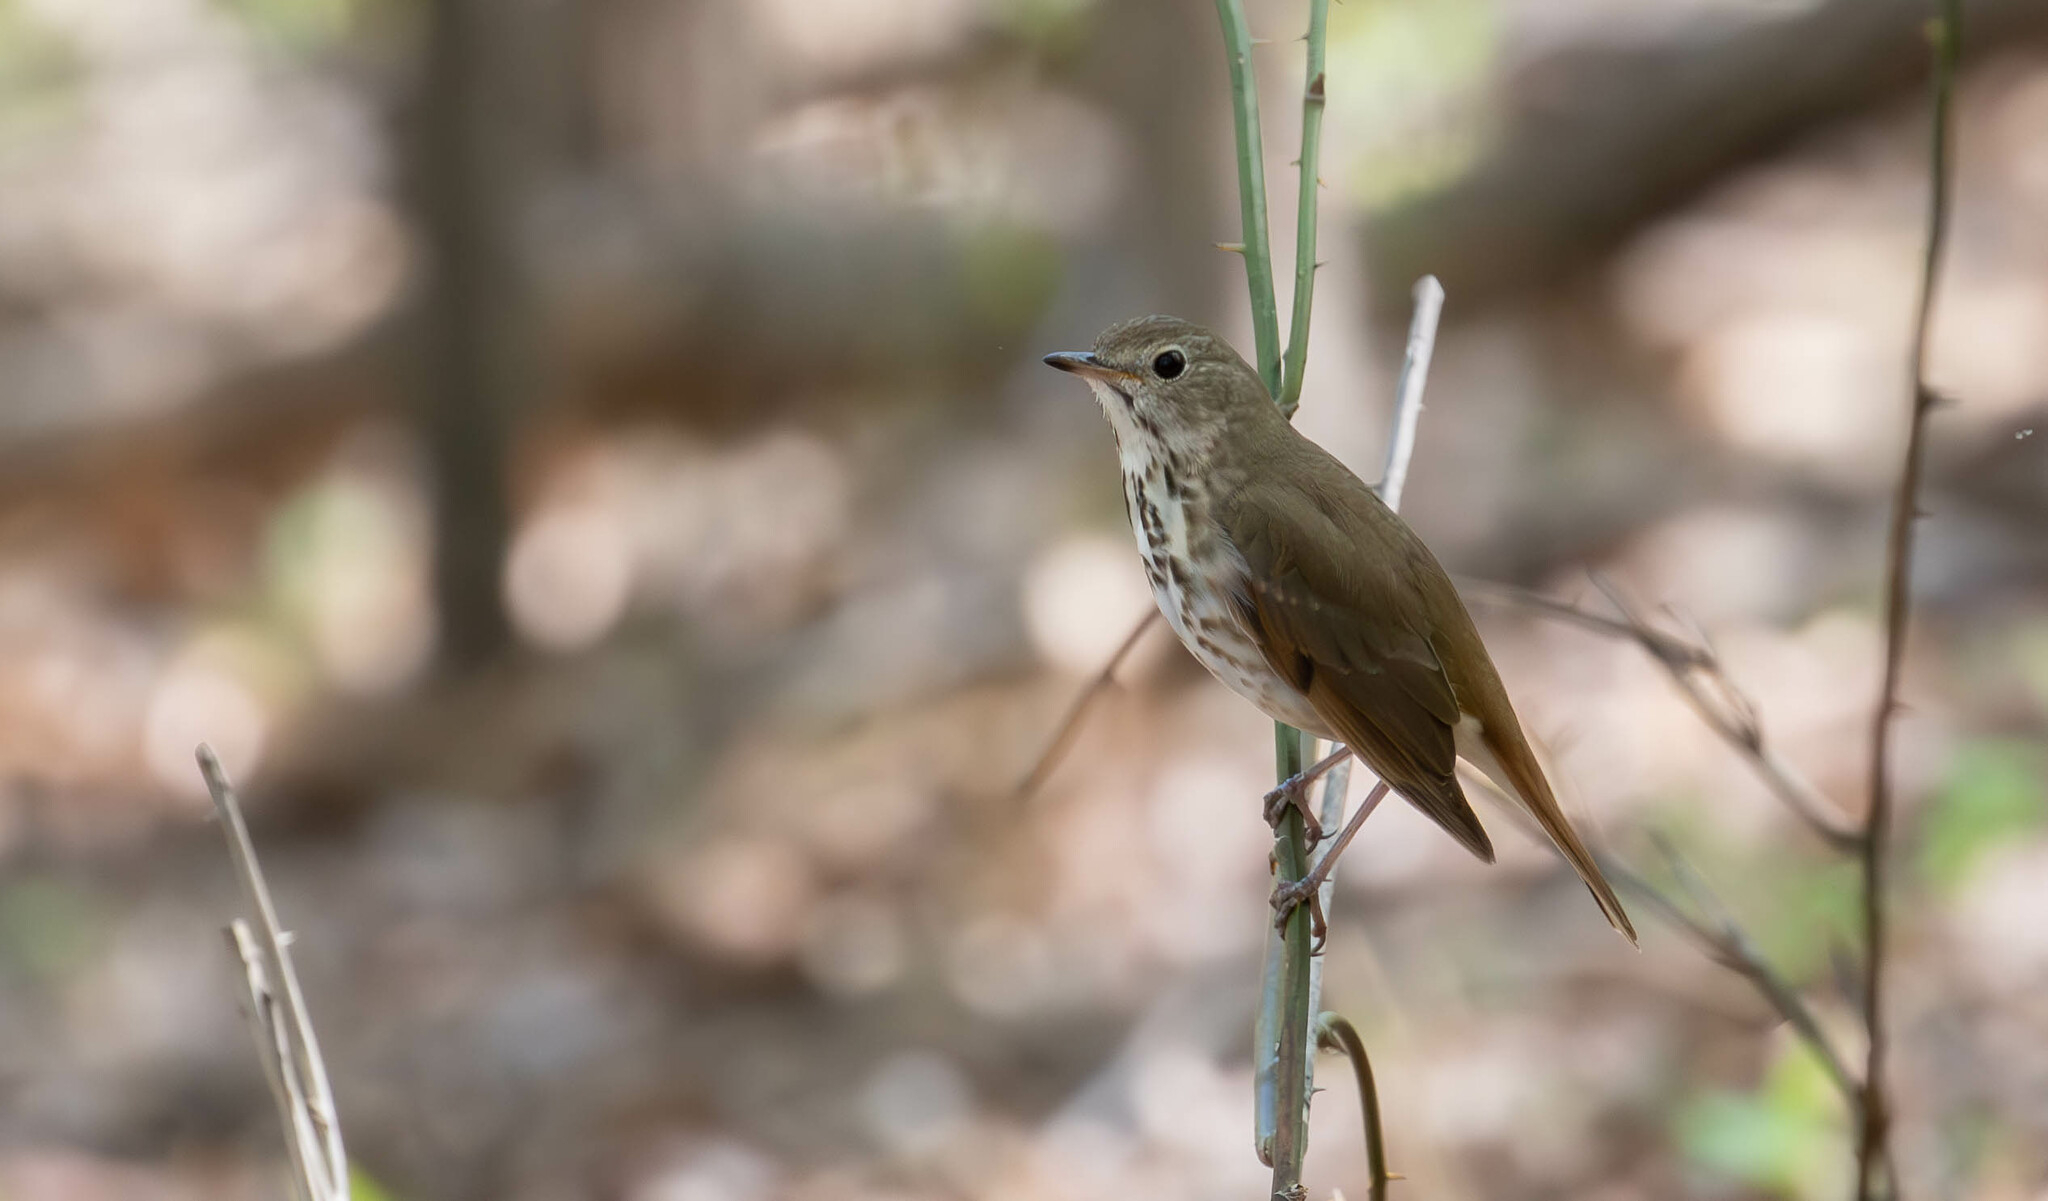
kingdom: Animalia
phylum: Chordata
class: Aves
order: Passeriformes
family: Turdidae
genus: Catharus
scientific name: Catharus guttatus
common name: Hermit thrush
